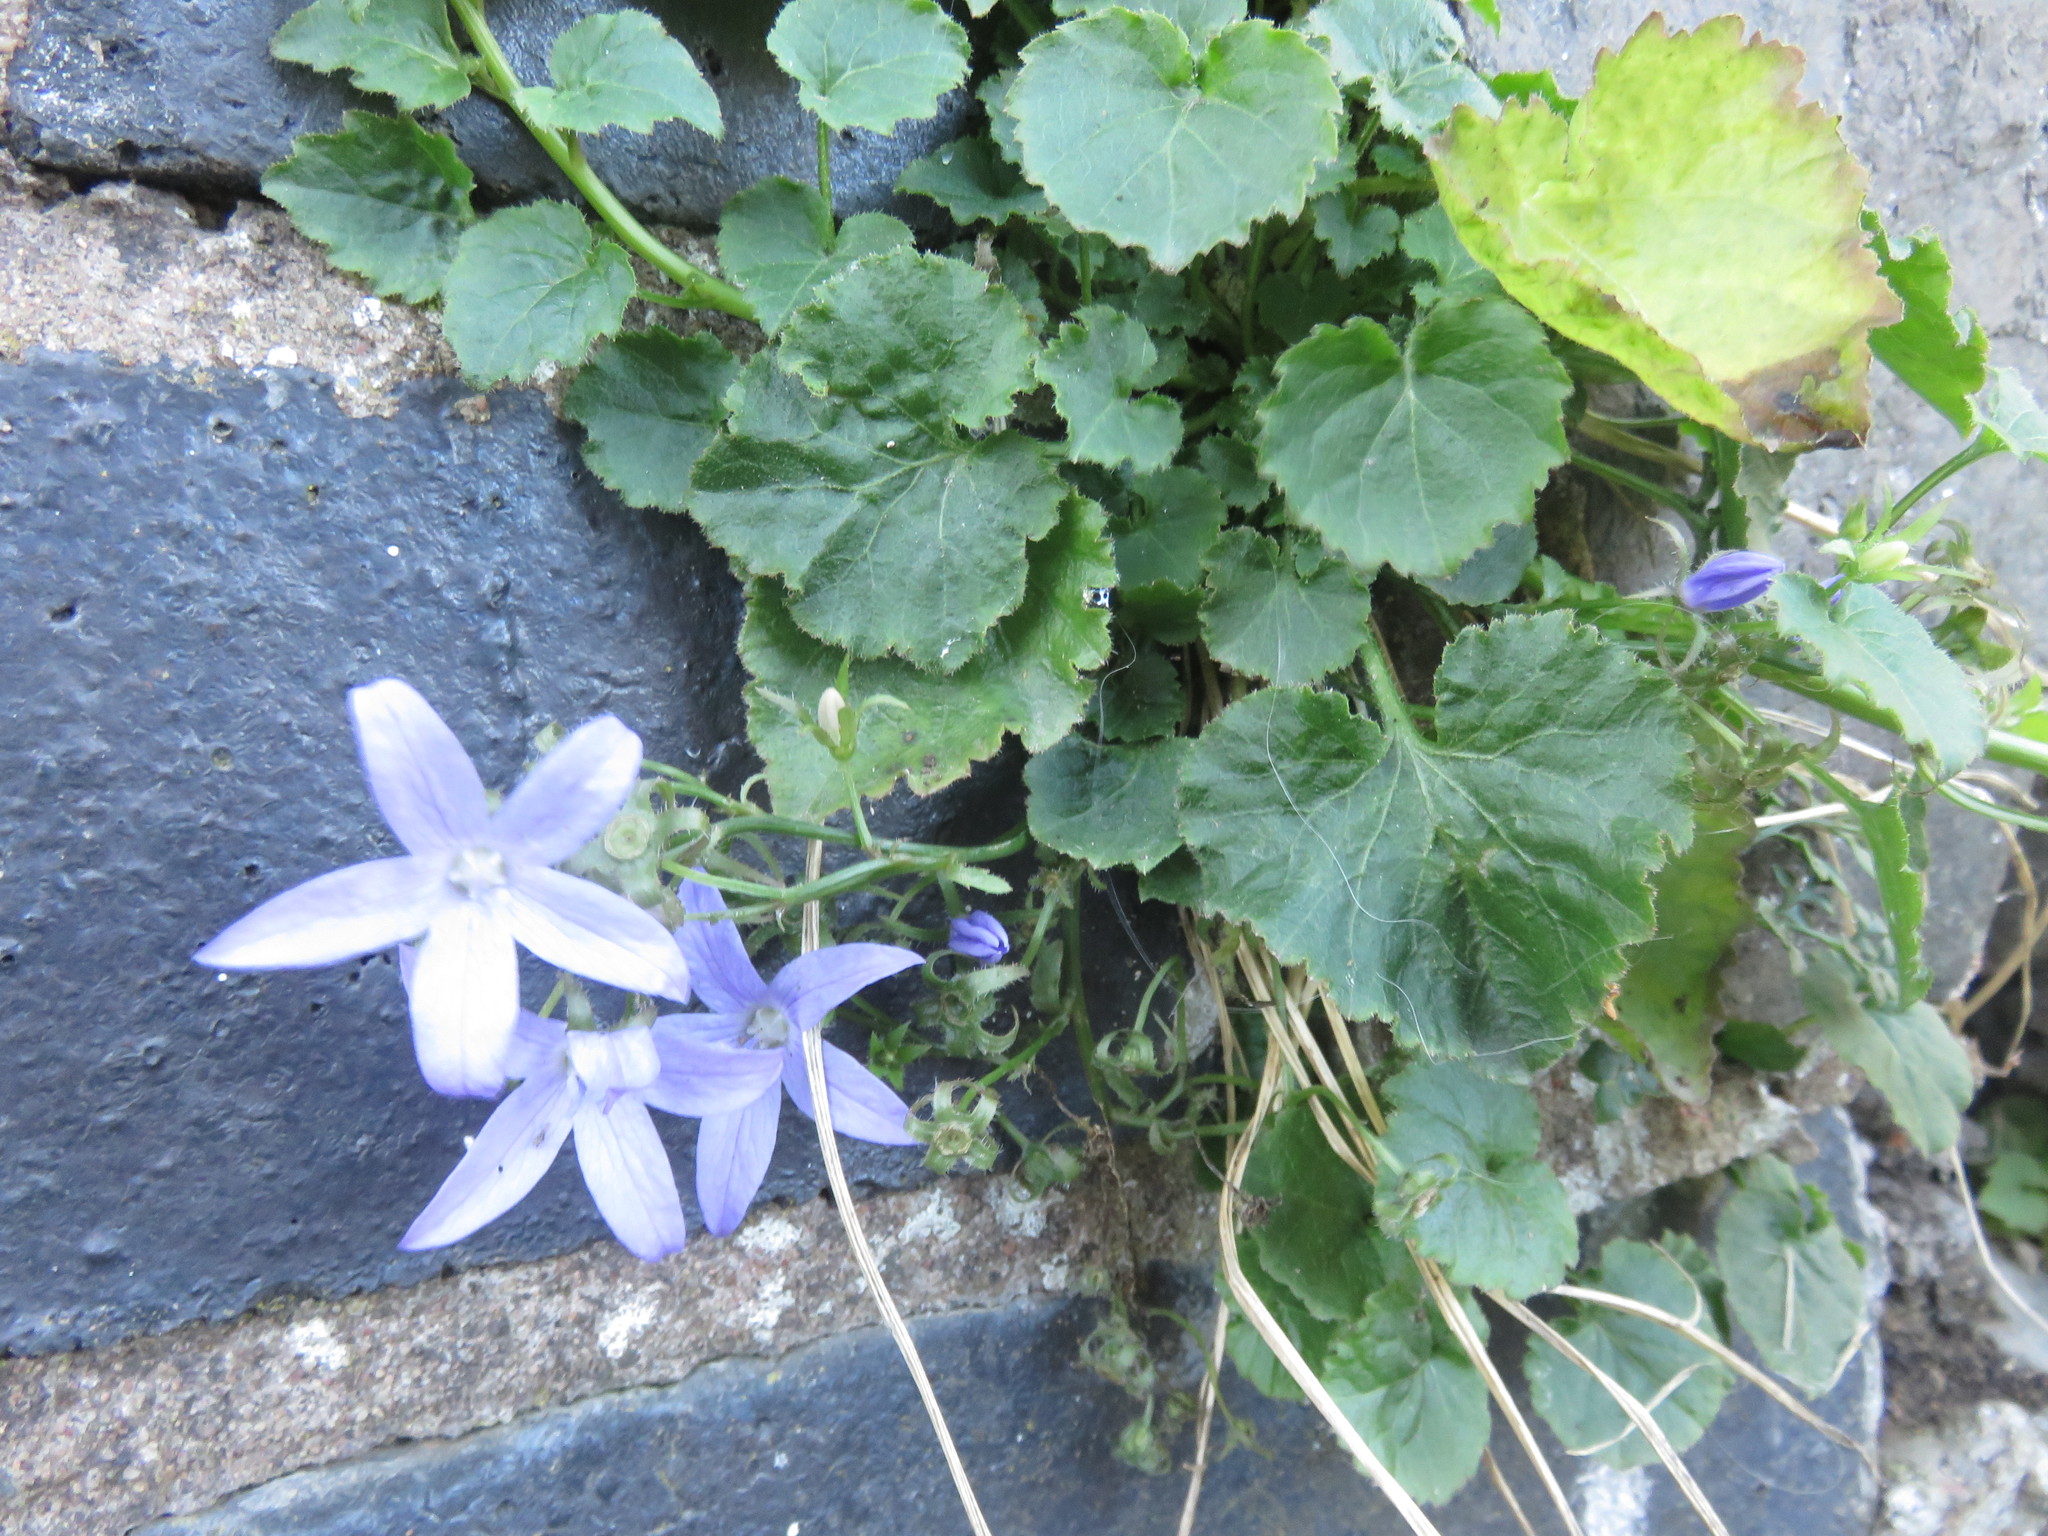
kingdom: Plantae
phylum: Tracheophyta
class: Magnoliopsida
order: Asterales
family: Campanulaceae
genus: Campanula
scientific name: Campanula poscharskyana
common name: Trailing bellflower
